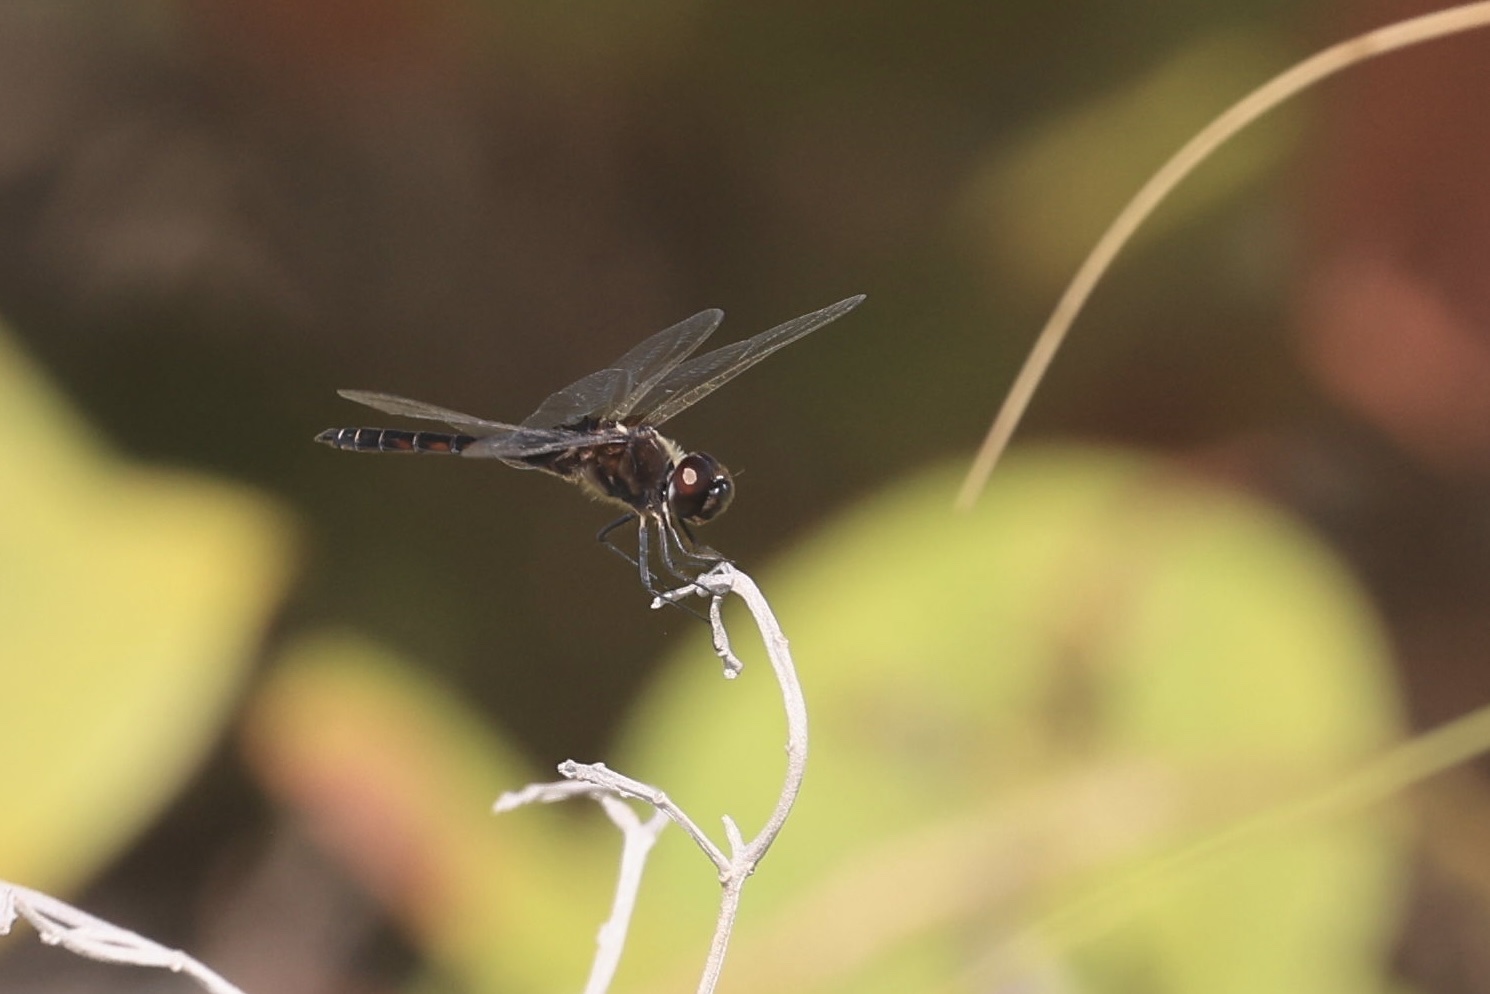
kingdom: Animalia
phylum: Arthropoda
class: Insecta
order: Odonata
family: Libellulidae
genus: Macrodiplax
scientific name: Macrodiplax balteata
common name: Marl pennant
